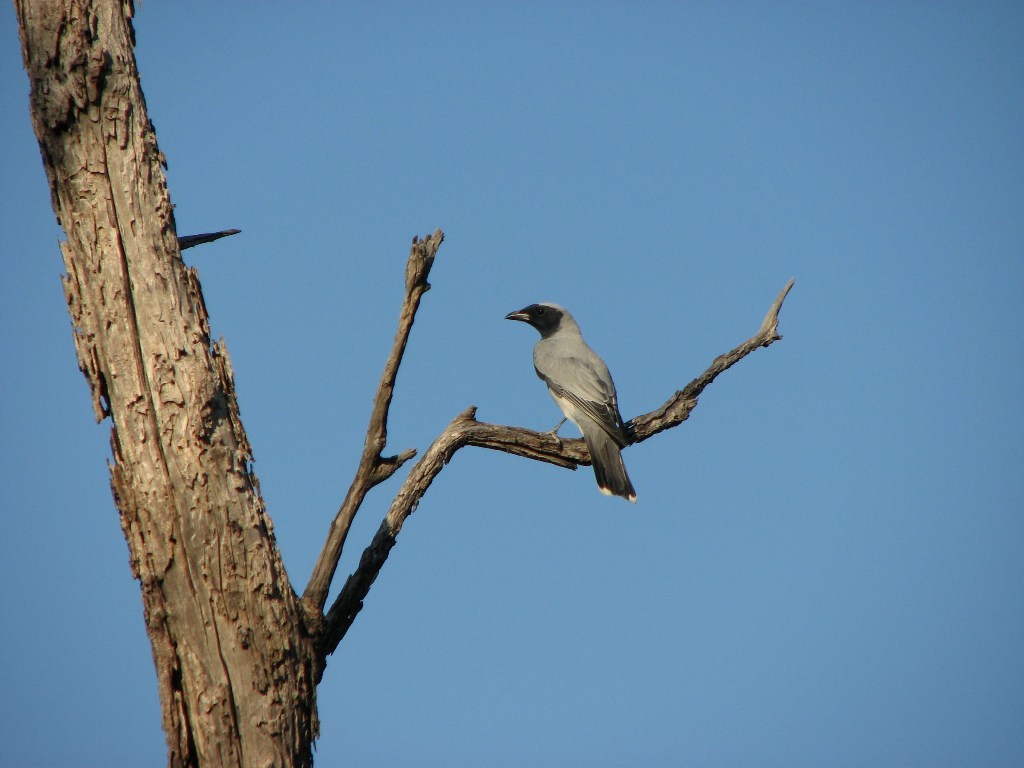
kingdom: Animalia
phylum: Chordata
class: Aves
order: Passeriformes
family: Campephagidae
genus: Coracina
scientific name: Coracina novaehollandiae
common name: Black-faced cuckooshrike
